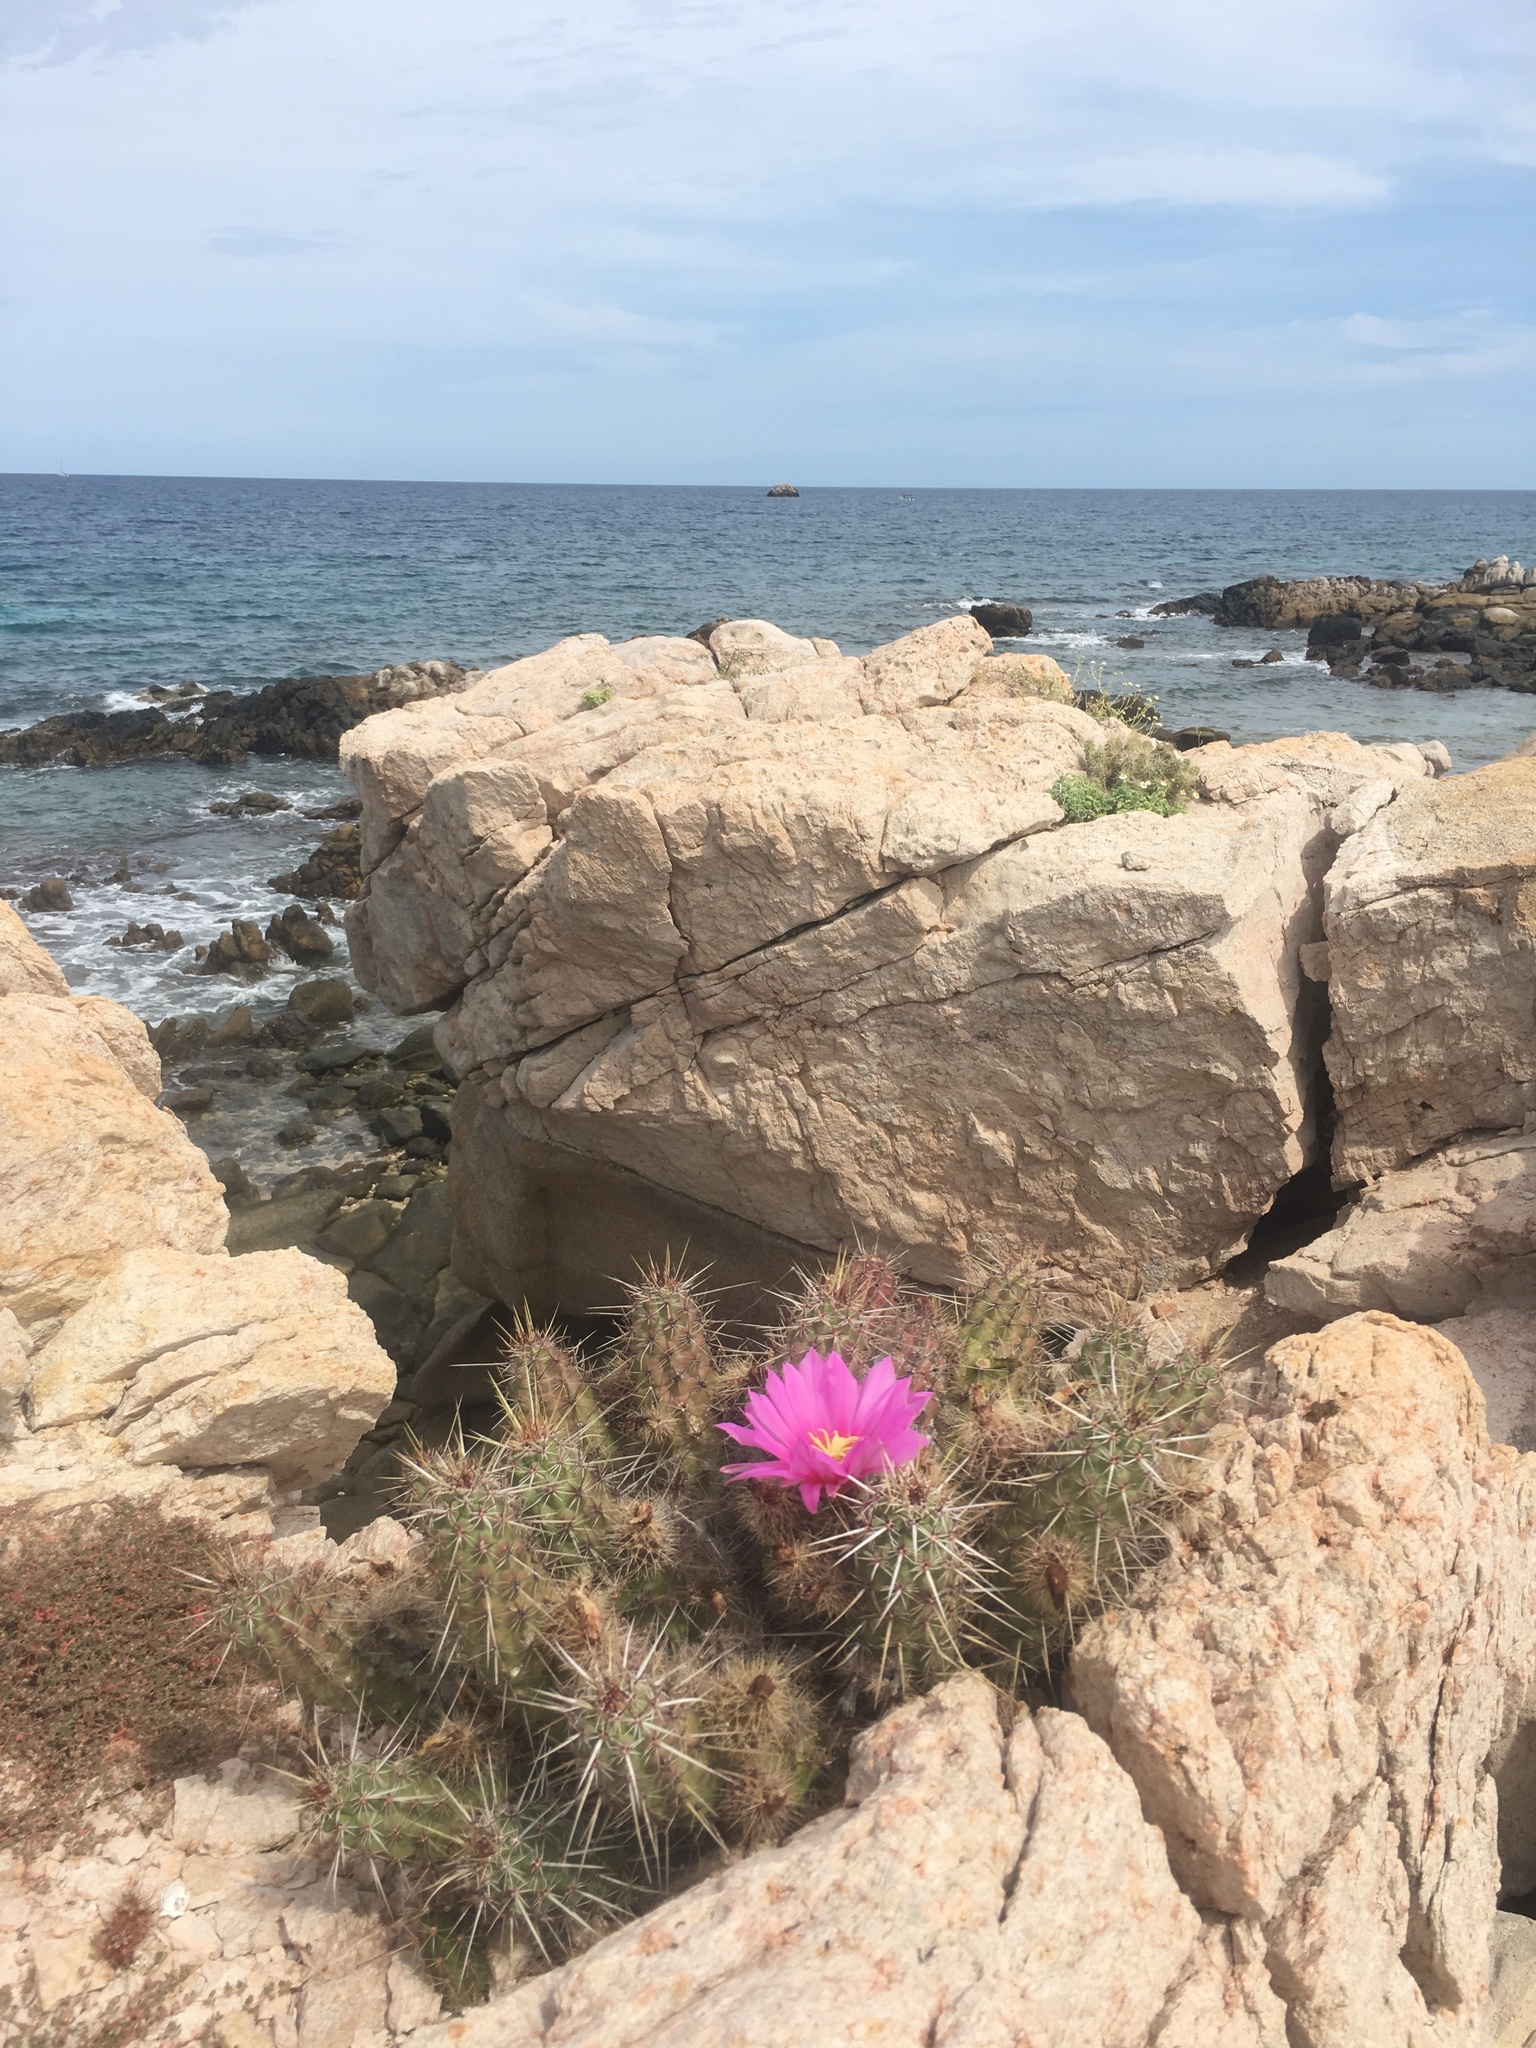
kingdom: Plantae
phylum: Tracheophyta
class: Magnoliopsida
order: Caryophyllales
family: Cactaceae
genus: Echinocereus
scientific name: Echinocereus brandegeei
